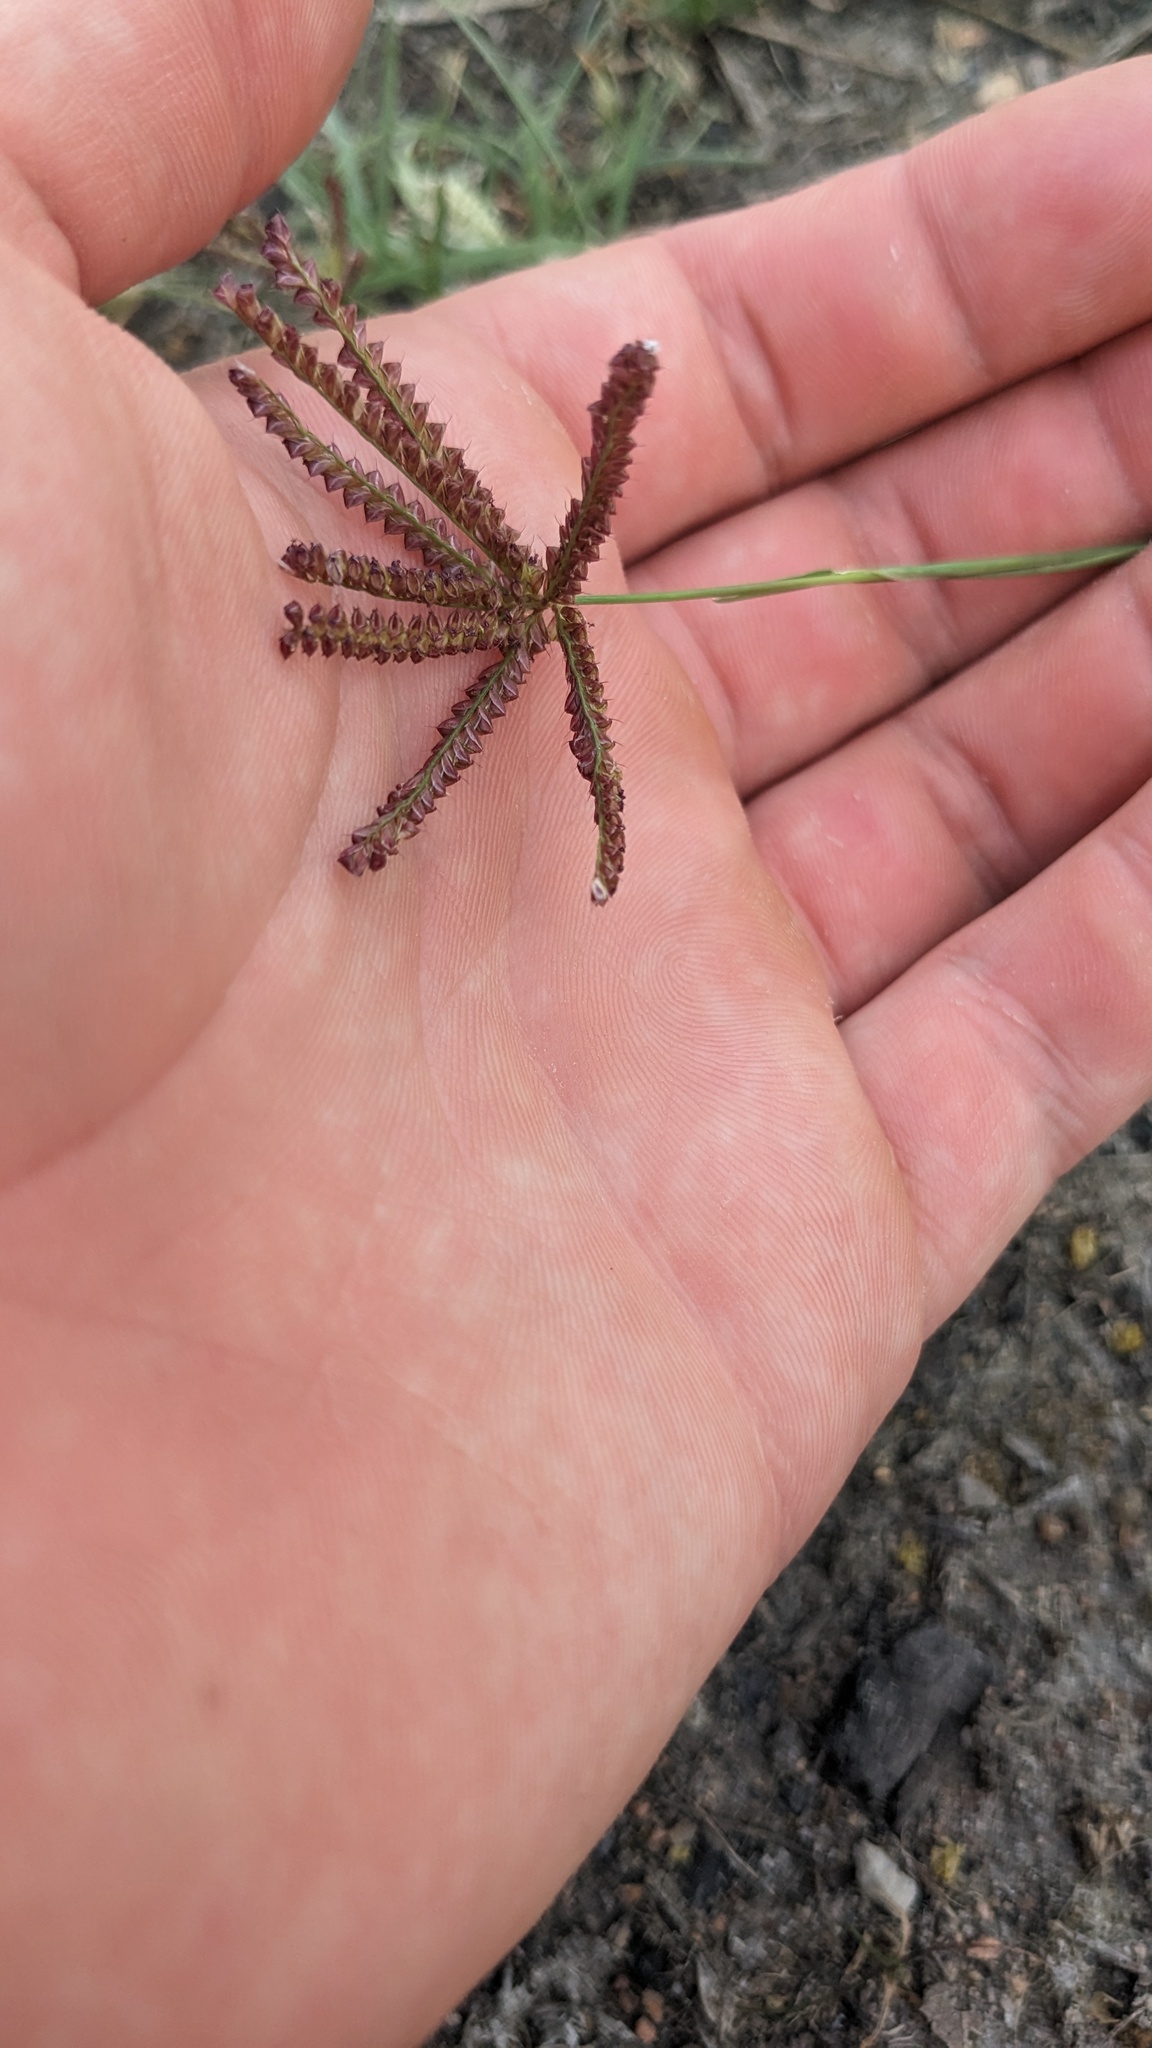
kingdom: Plantae
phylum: Tracheophyta
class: Liliopsida
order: Poales
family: Poaceae
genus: Chloris
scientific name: Chloris cucullata
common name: Hooded windmill grass
